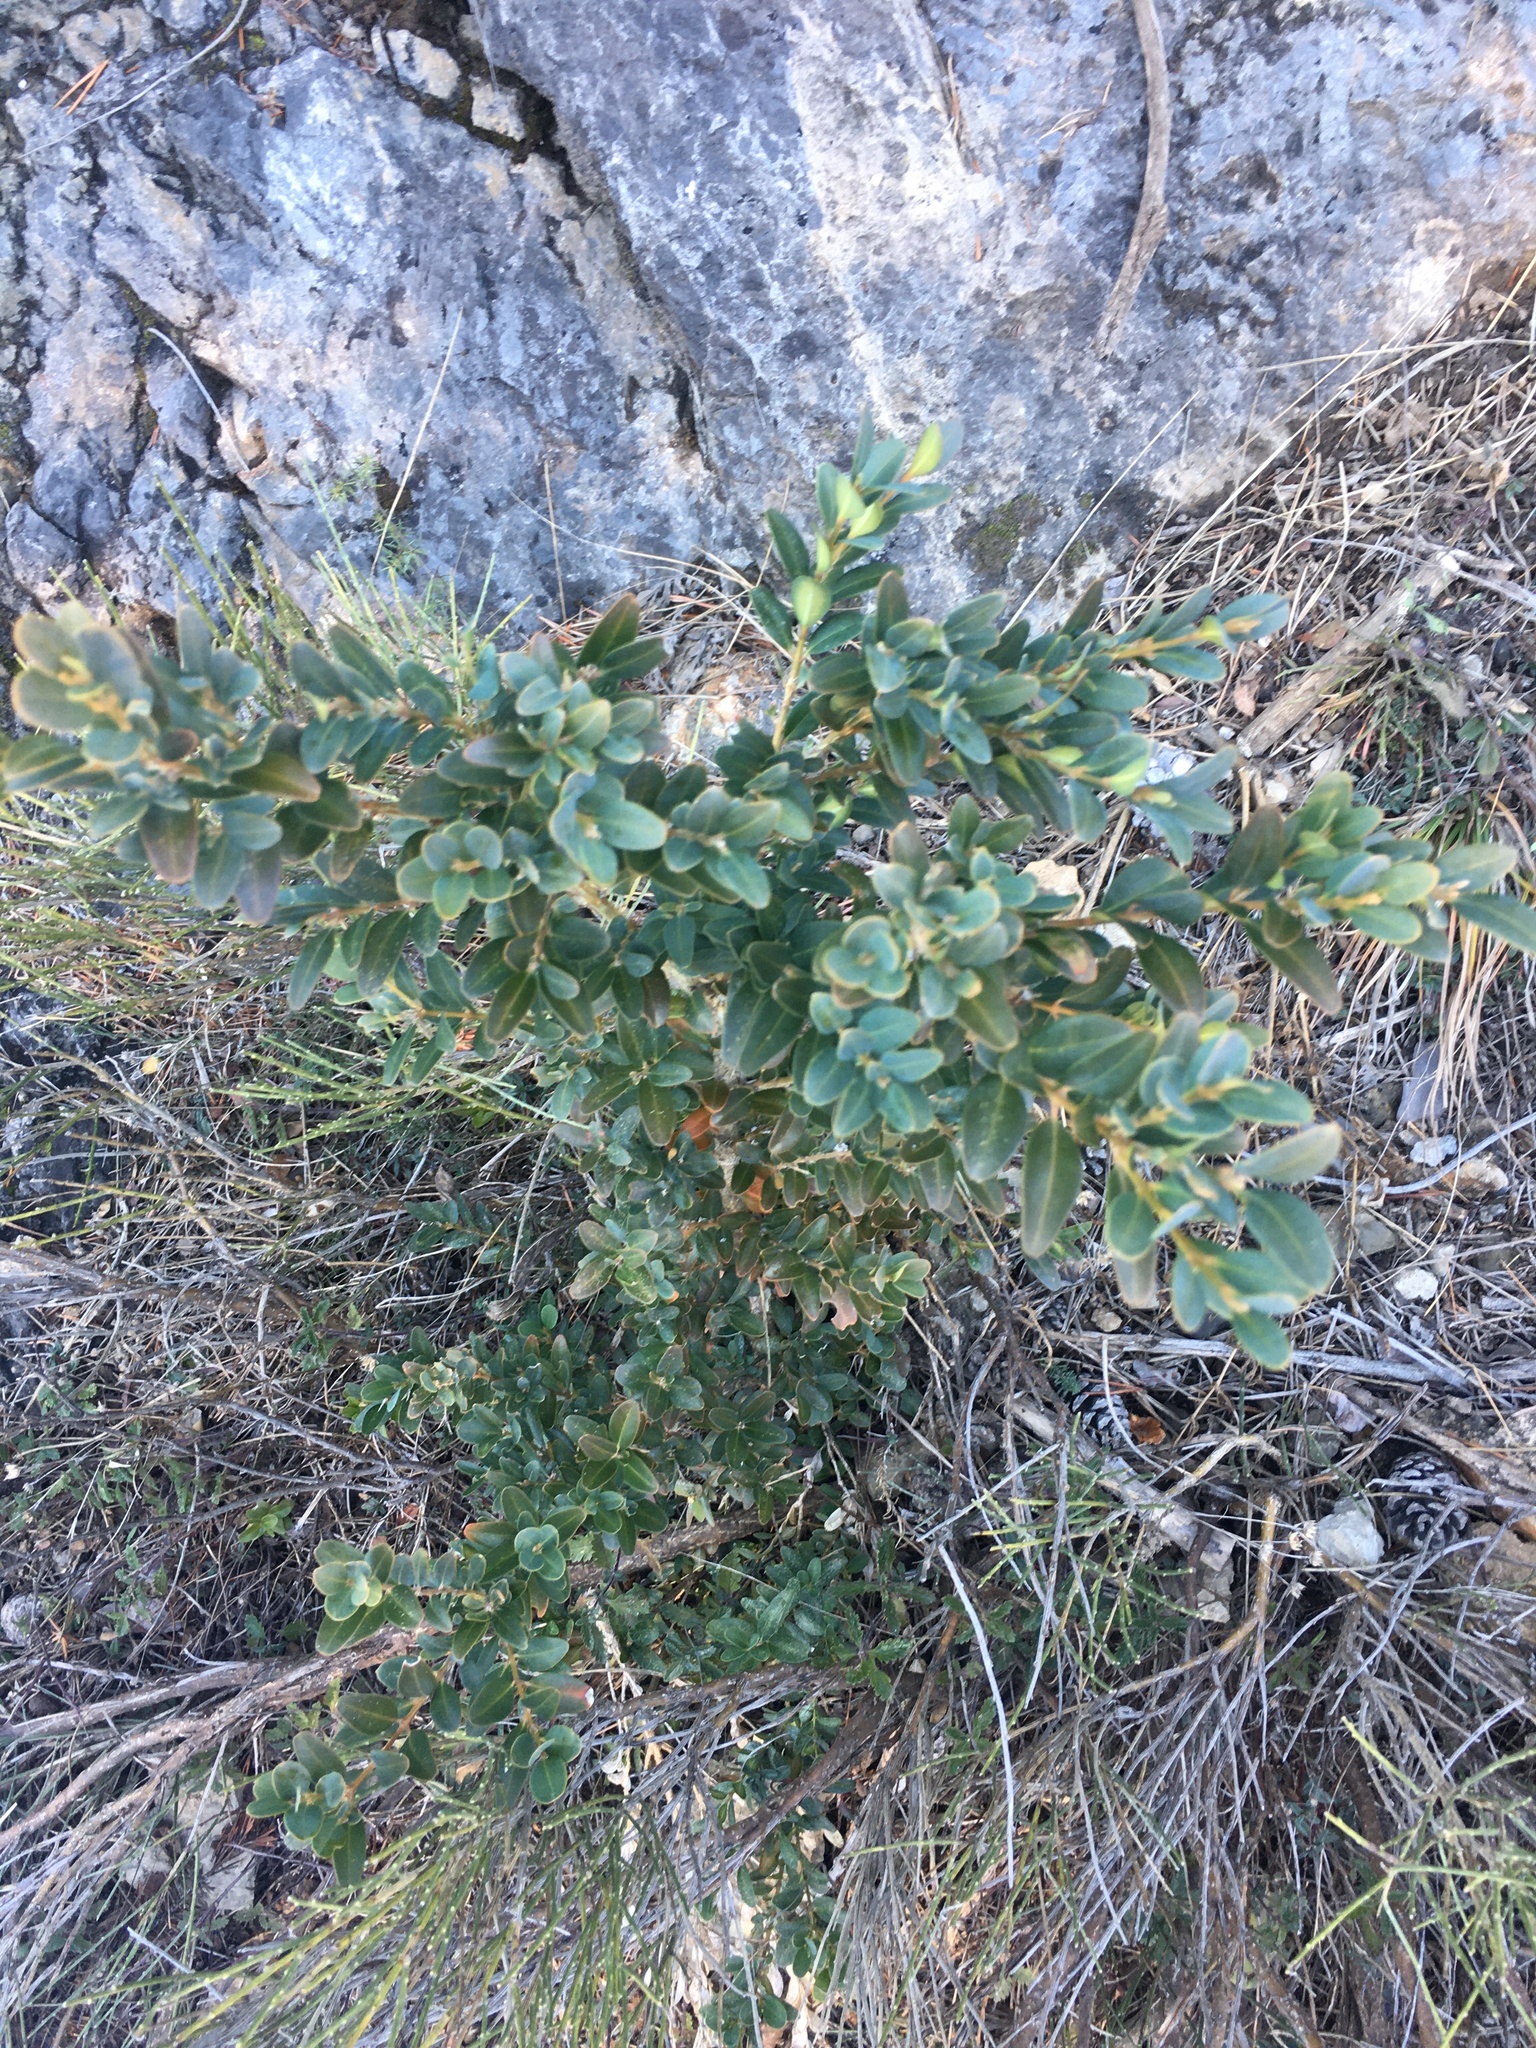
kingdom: Plantae
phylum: Tracheophyta
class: Magnoliopsida
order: Buxales
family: Buxaceae
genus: Buxus
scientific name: Buxus sempervirens
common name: Box
